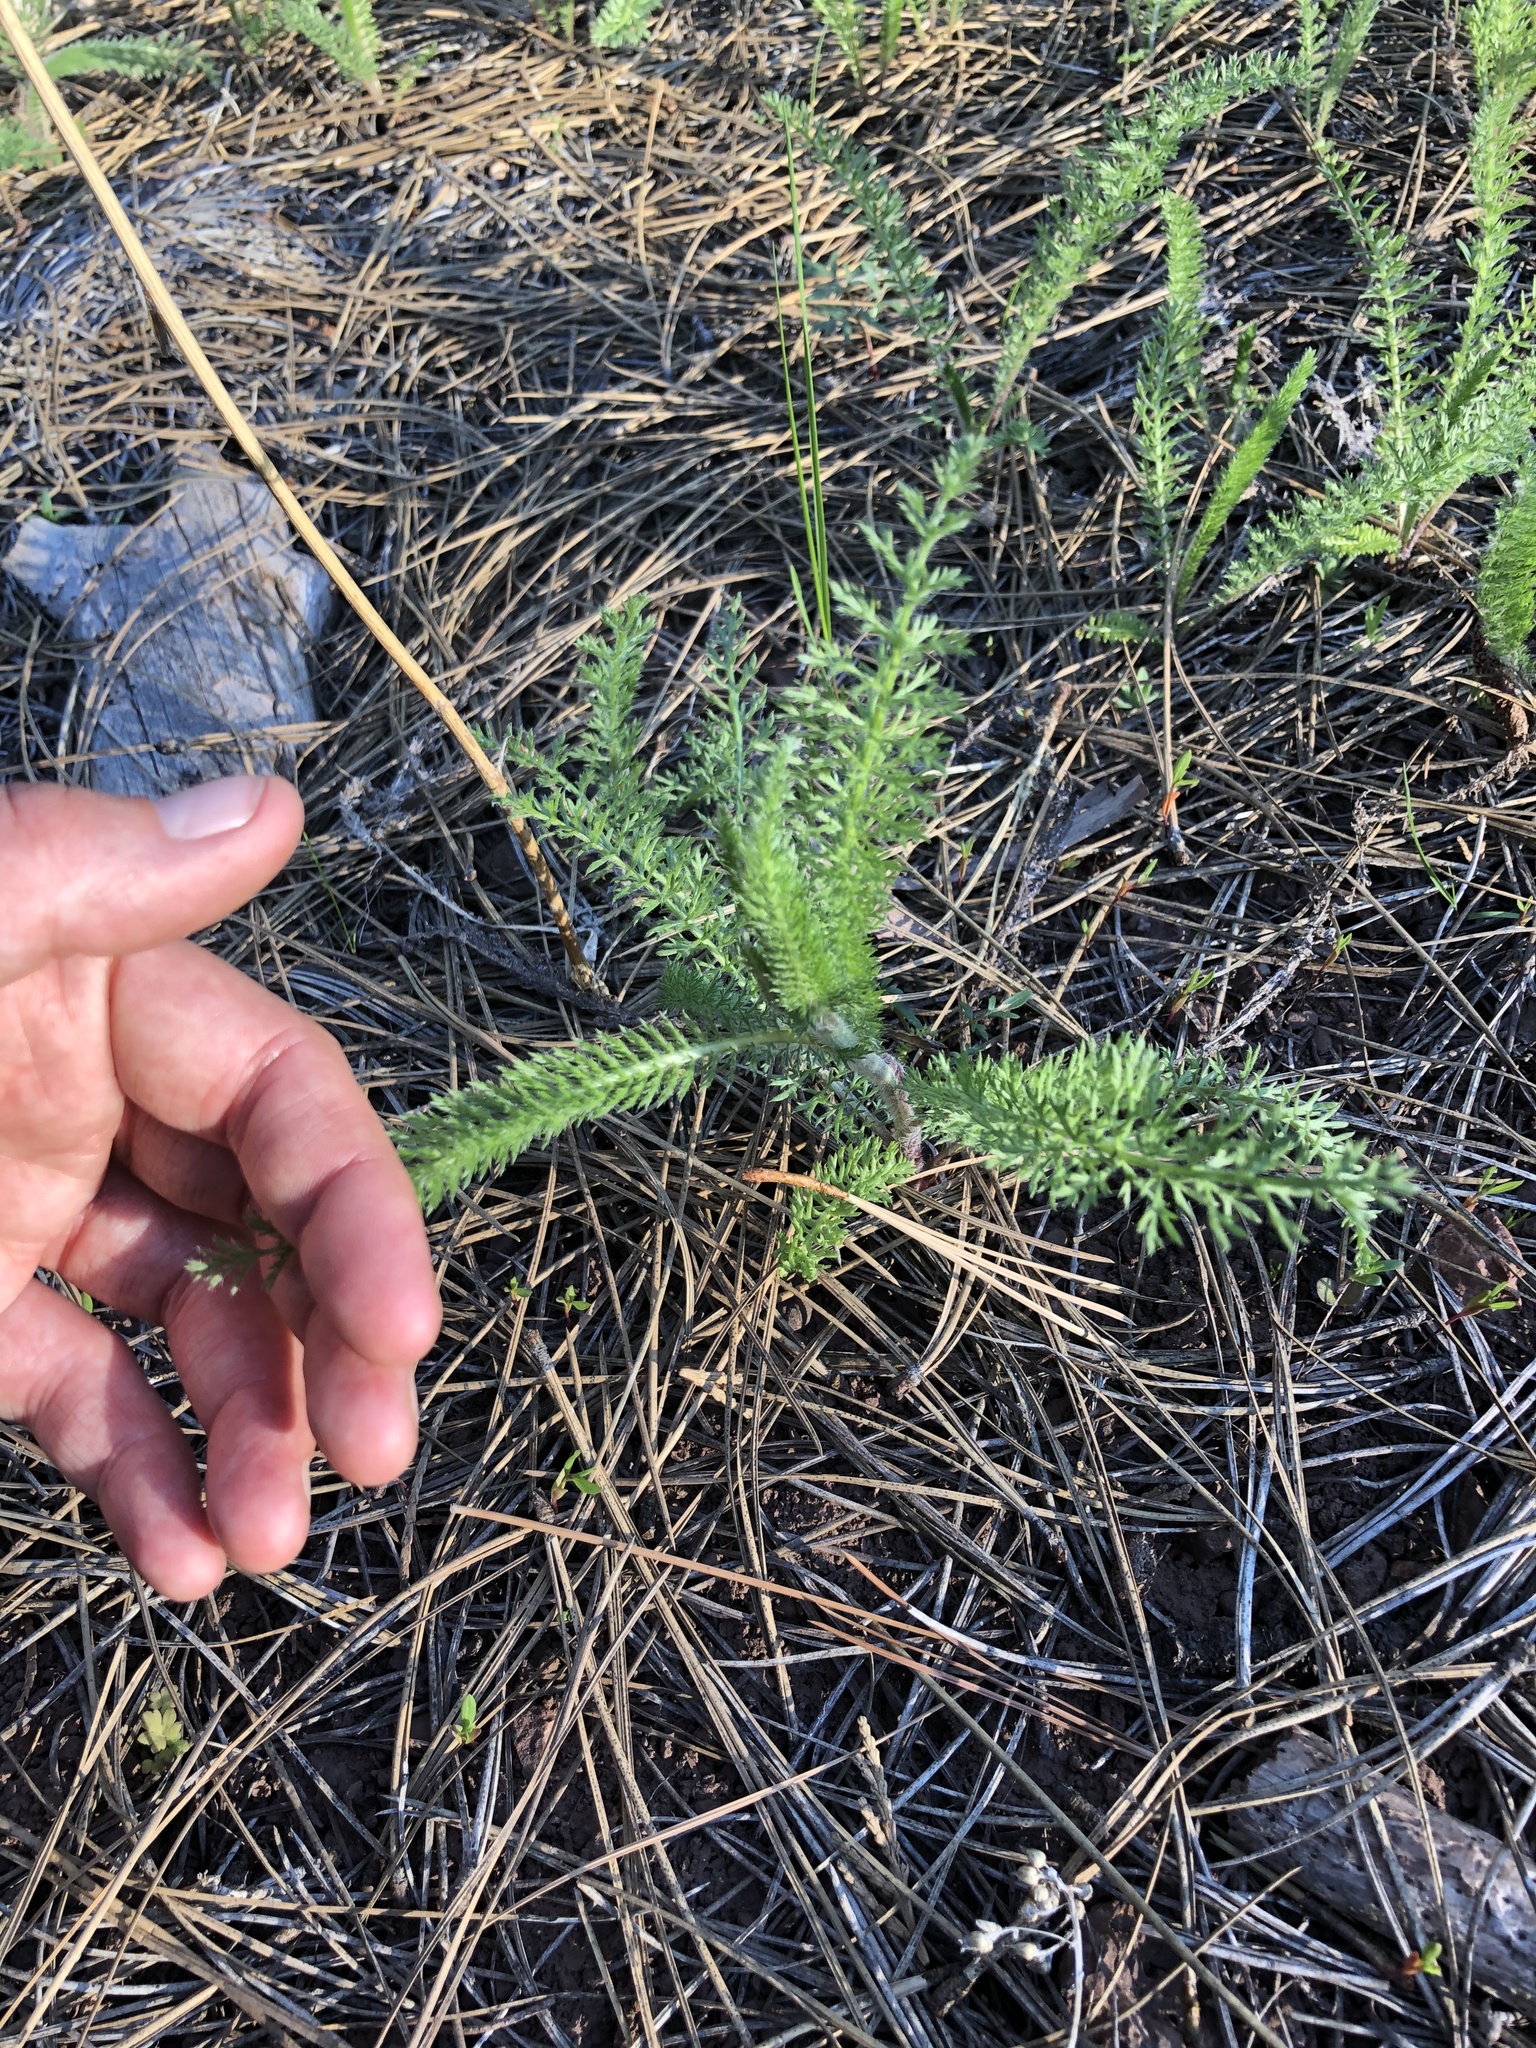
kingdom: Plantae
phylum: Tracheophyta
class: Magnoliopsida
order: Asterales
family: Asteraceae
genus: Achillea
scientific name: Achillea millefolium
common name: Yarrow
